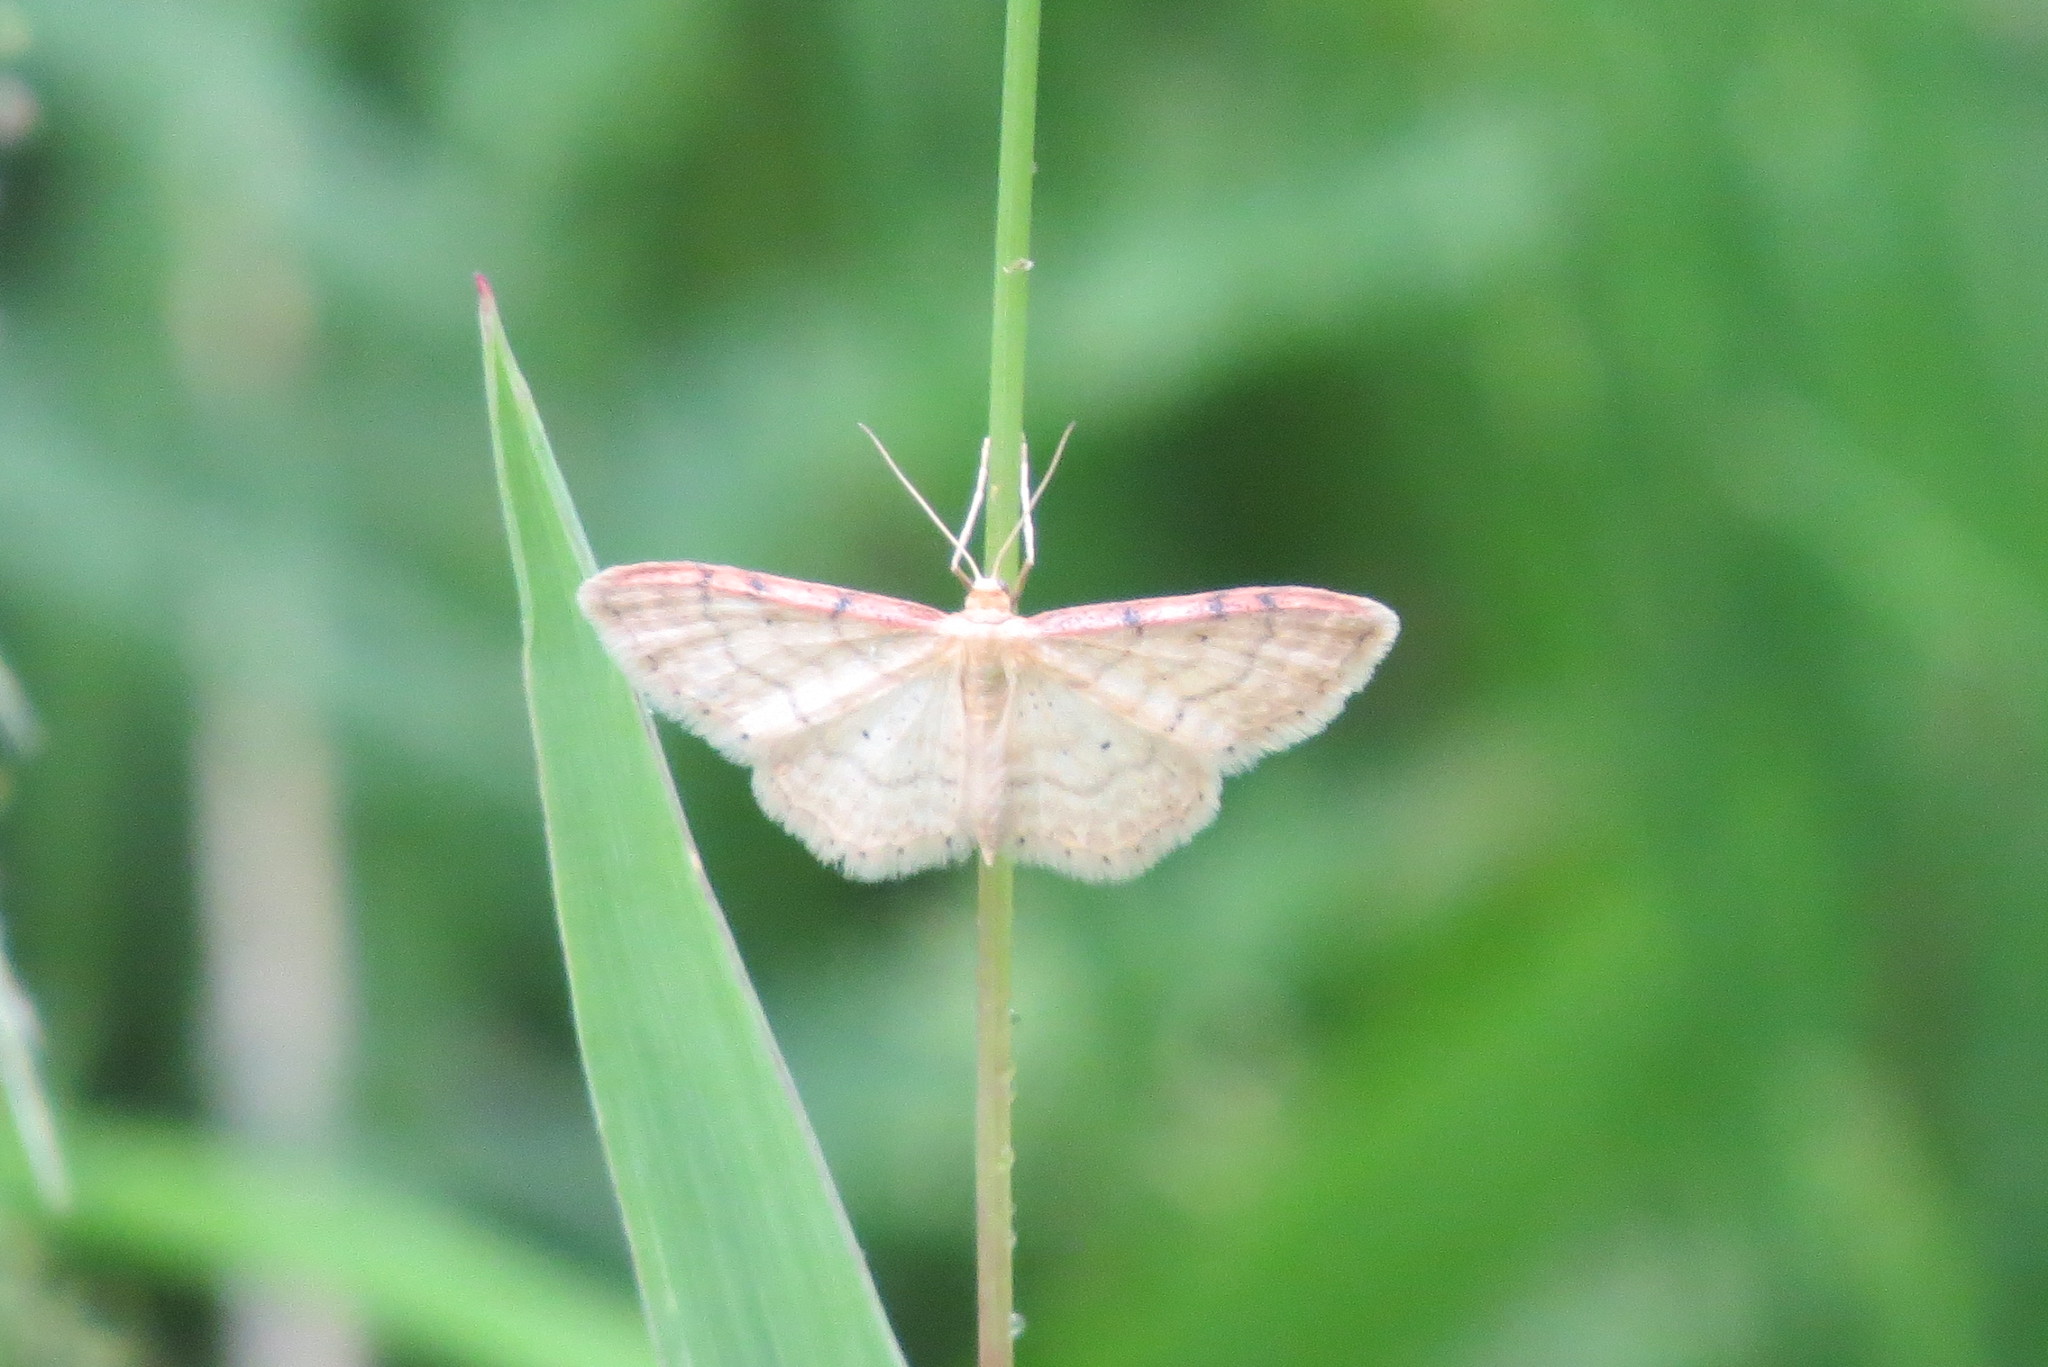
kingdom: Animalia
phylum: Arthropoda
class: Insecta
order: Lepidoptera
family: Geometridae
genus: Idaea
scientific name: Idaea humiliata
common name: Isle of wight wave
